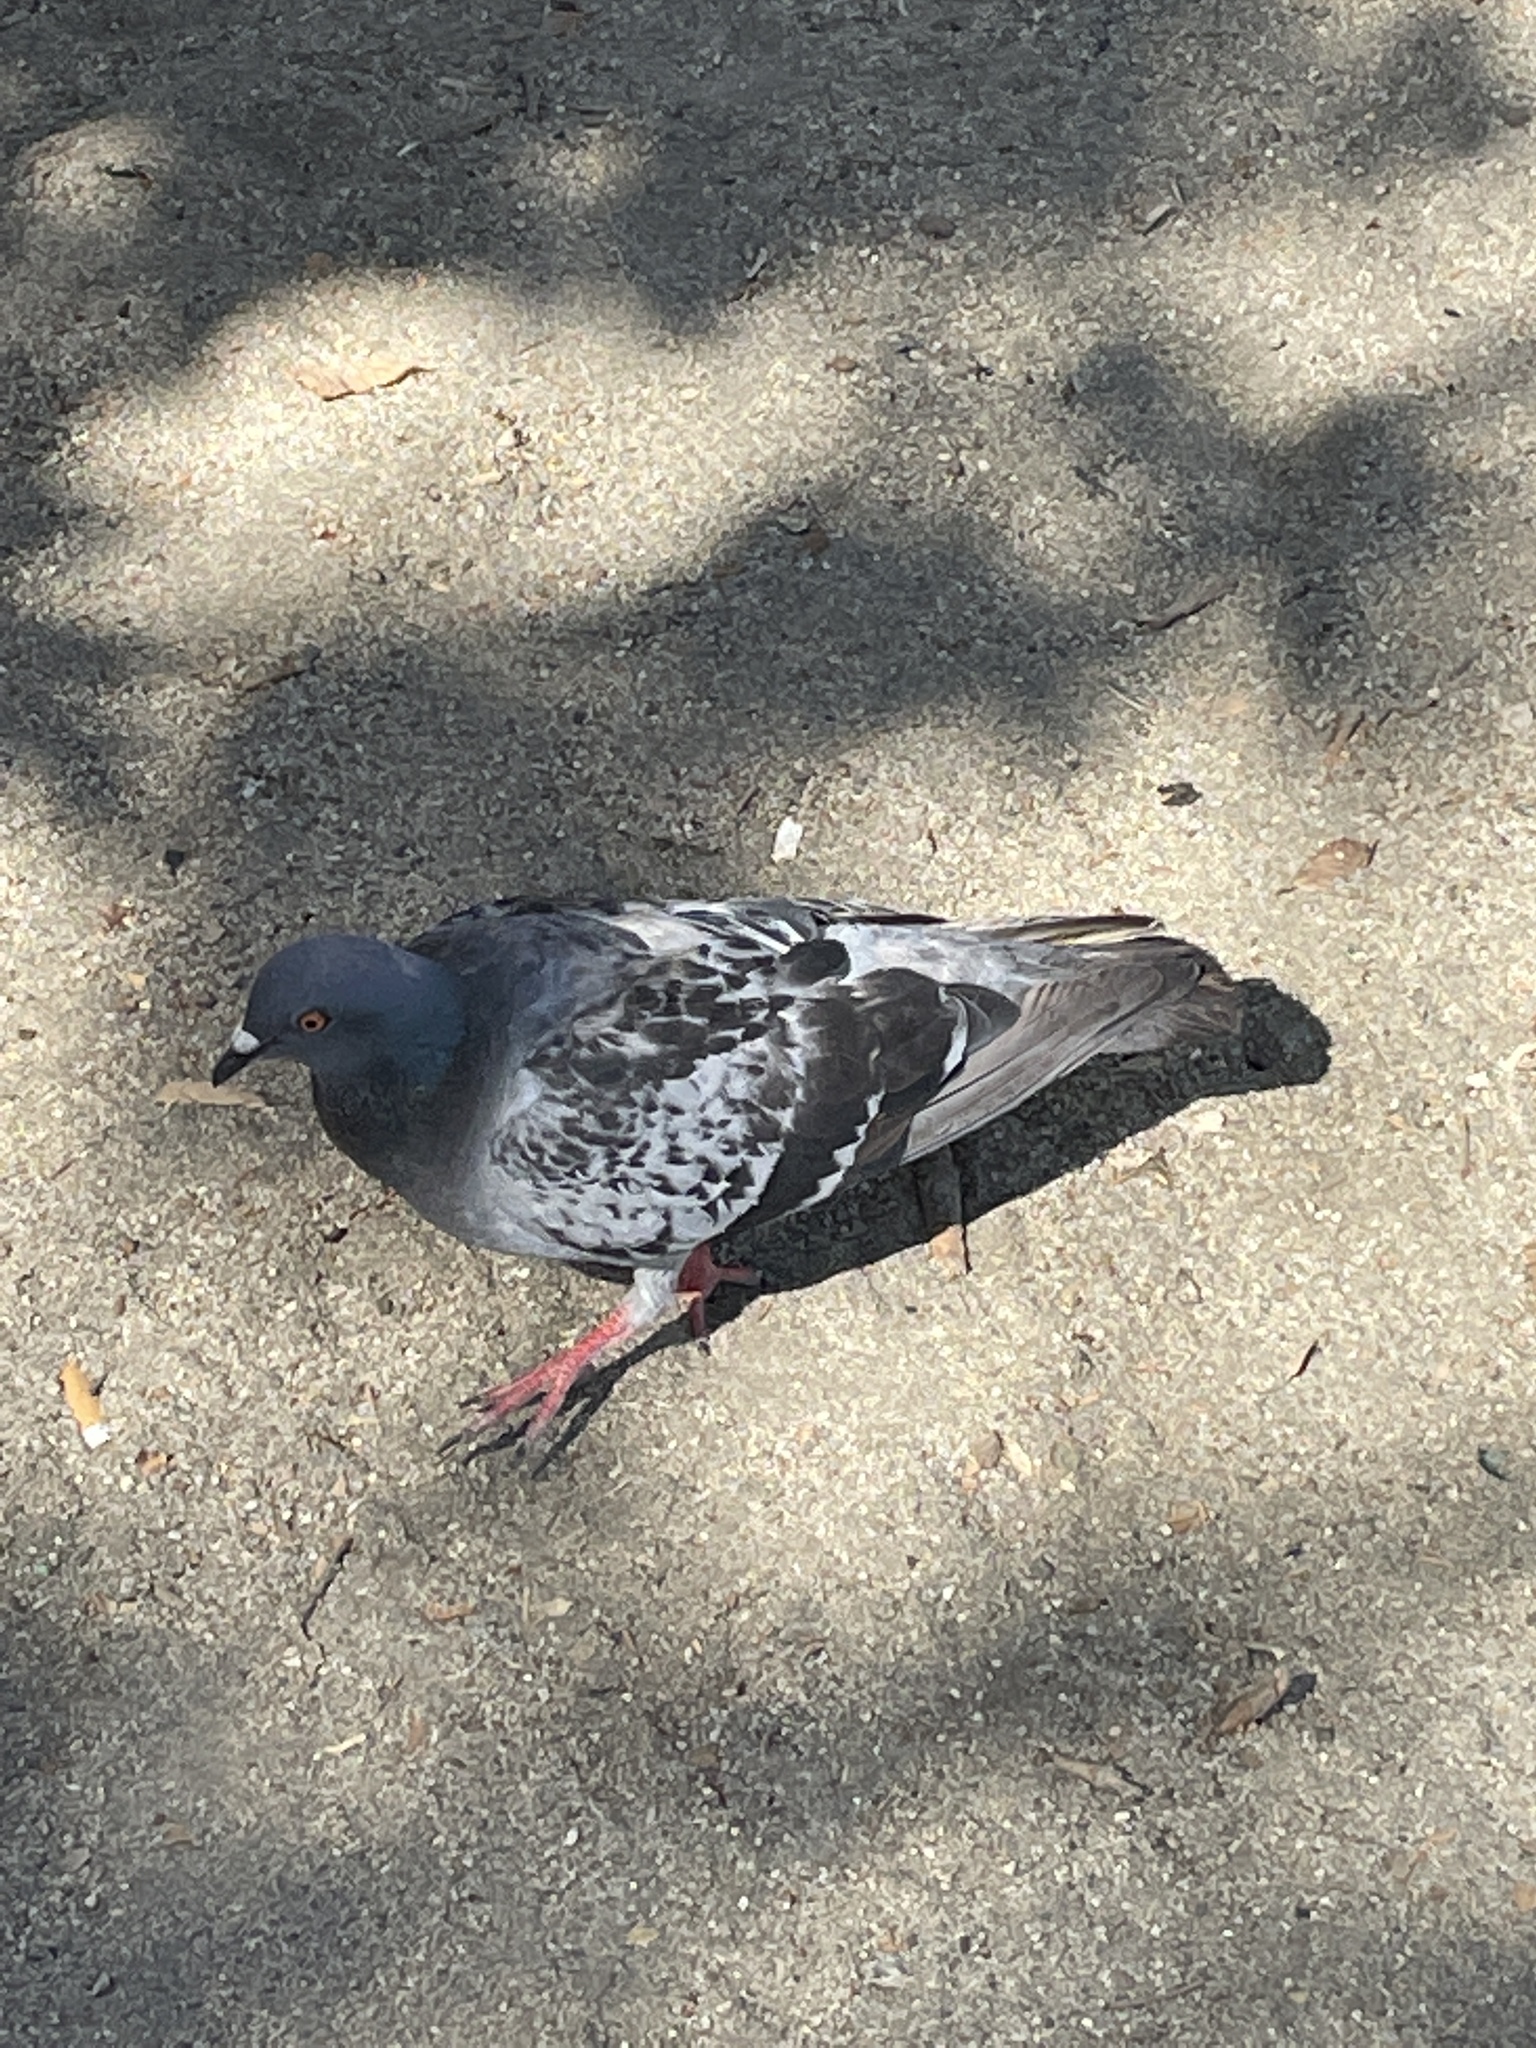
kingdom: Animalia
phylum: Chordata
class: Aves
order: Columbiformes
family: Columbidae
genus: Columba
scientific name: Columba livia
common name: Rock pigeon
